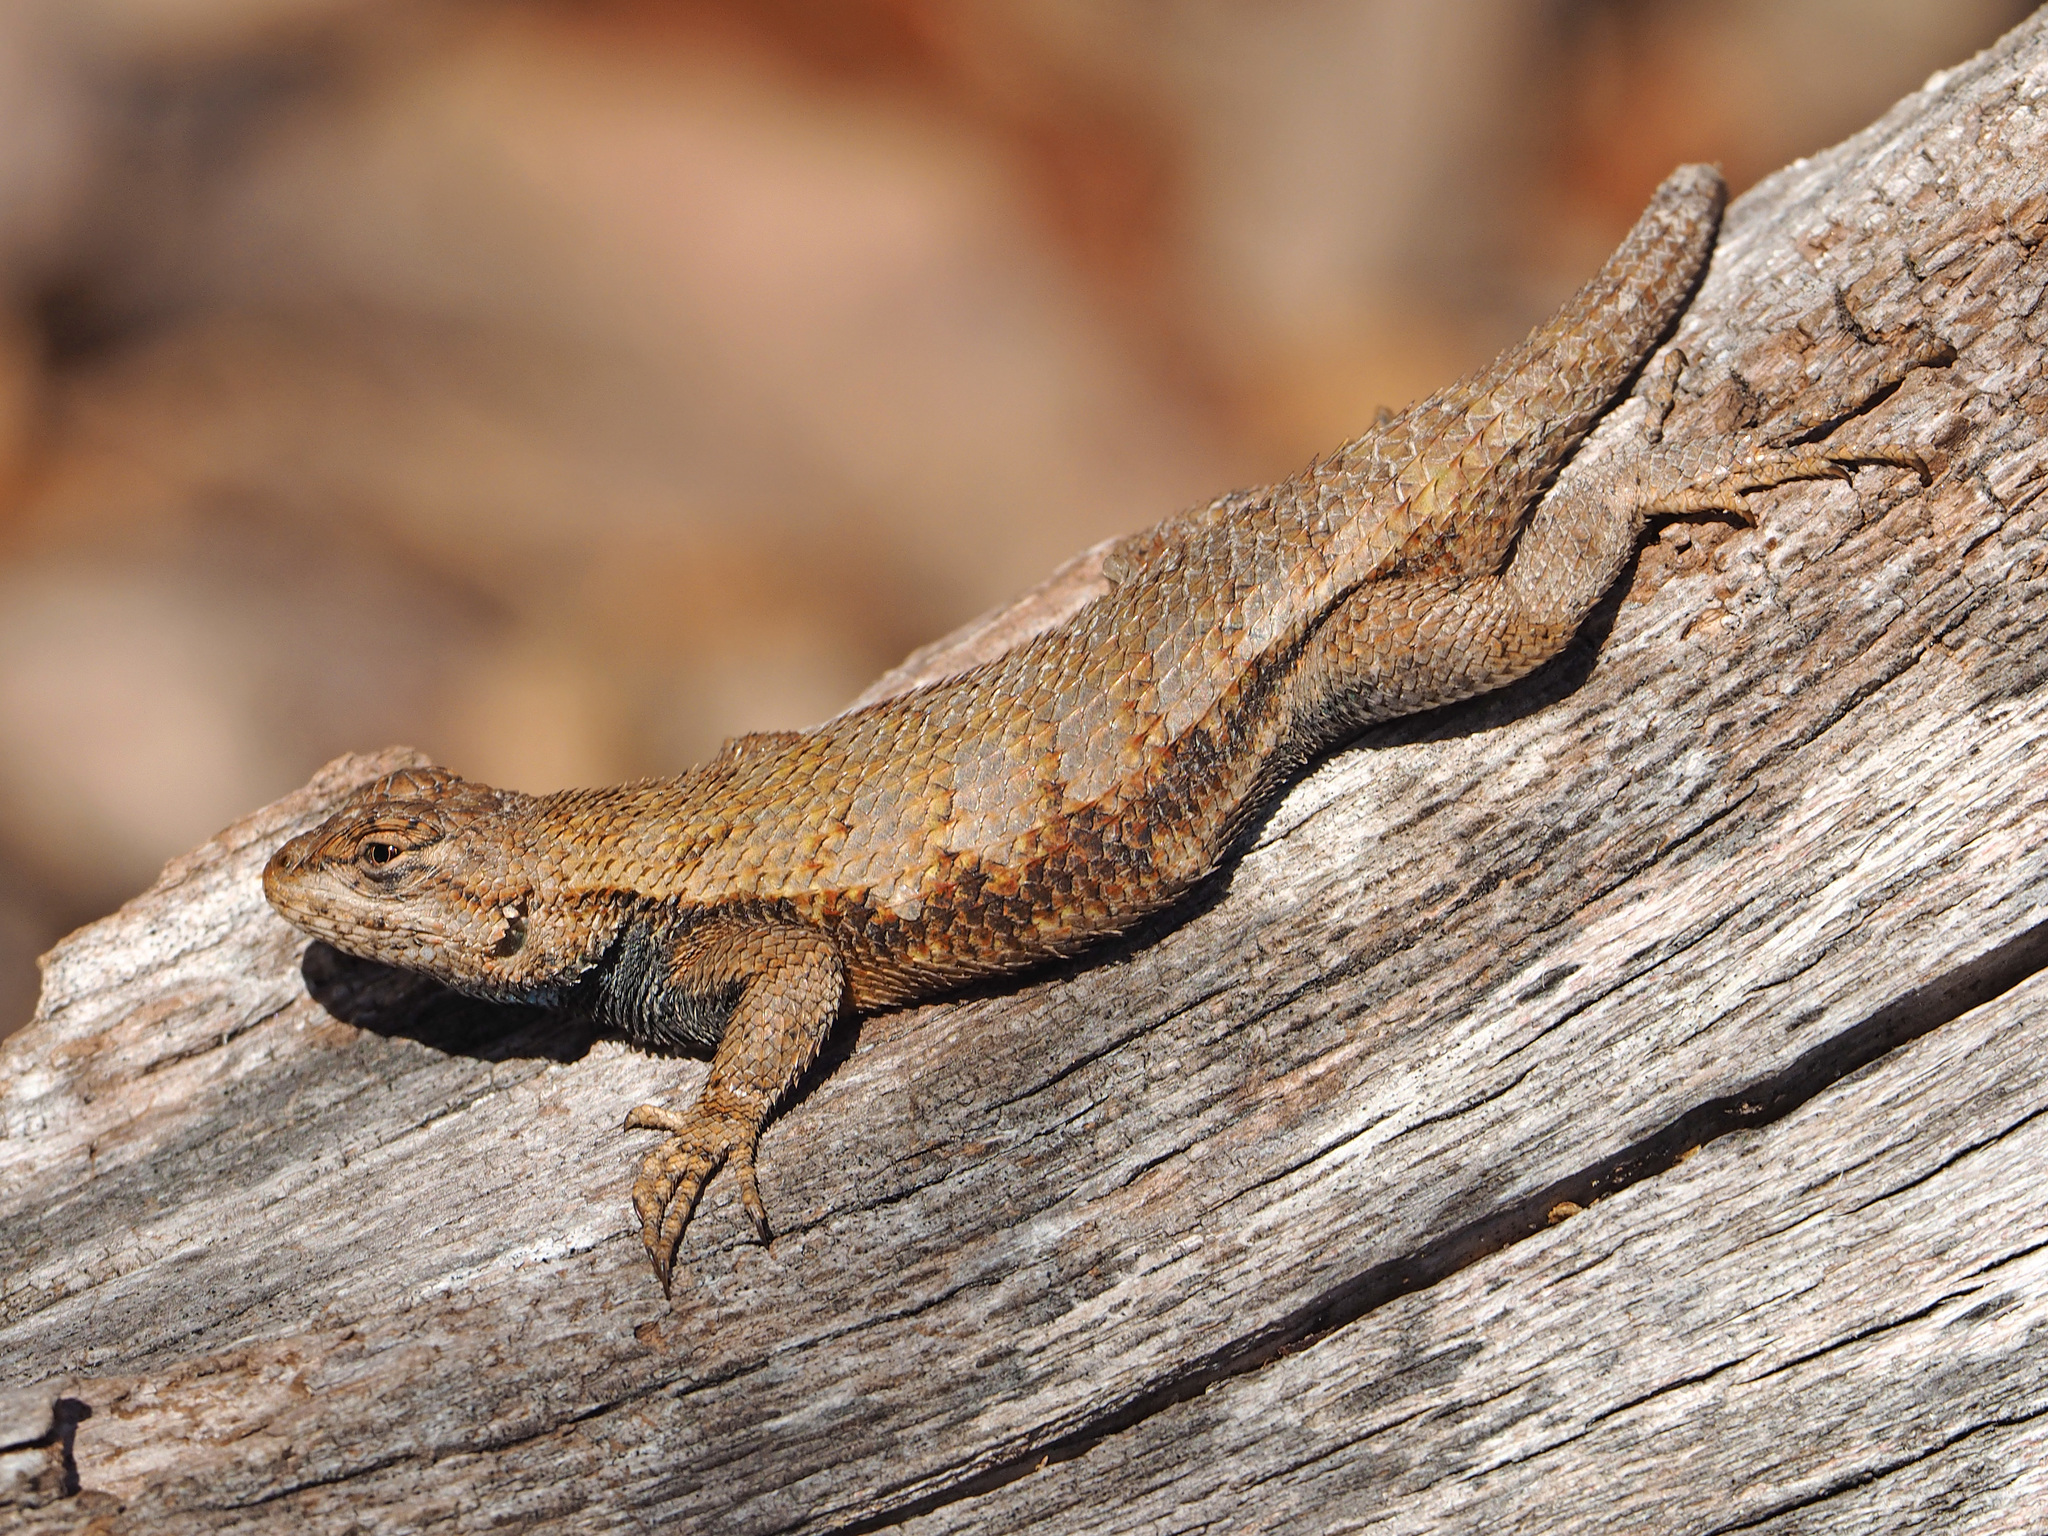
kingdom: Animalia
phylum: Chordata
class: Squamata
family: Phrynosomatidae
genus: Sceloporus
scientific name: Sceloporus undulatus
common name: Eastern fence lizard
